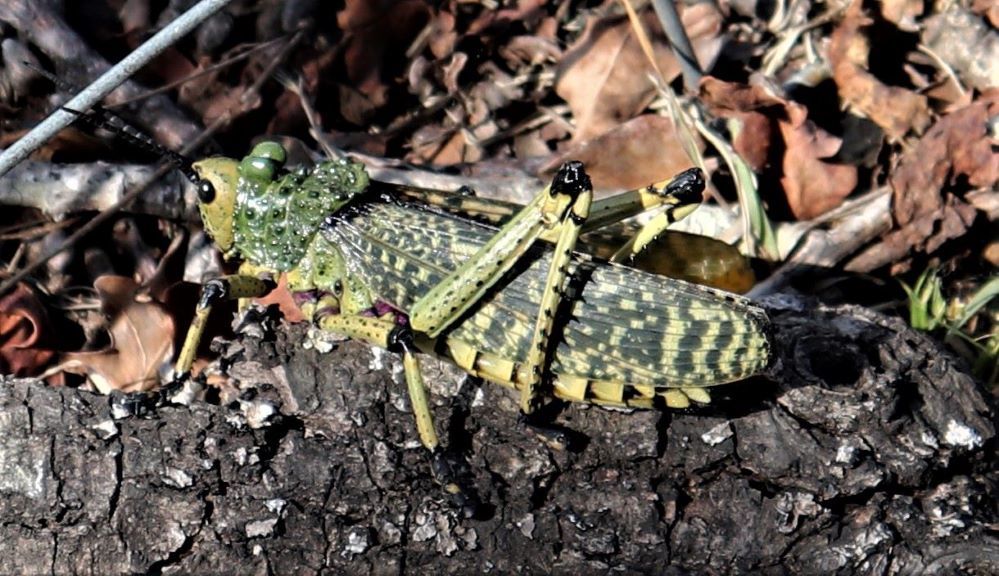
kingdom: Animalia
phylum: Arthropoda
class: Insecta
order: Orthoptera
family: Pyrgomorphidae
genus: Phymateus
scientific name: Phymateus leprosus
